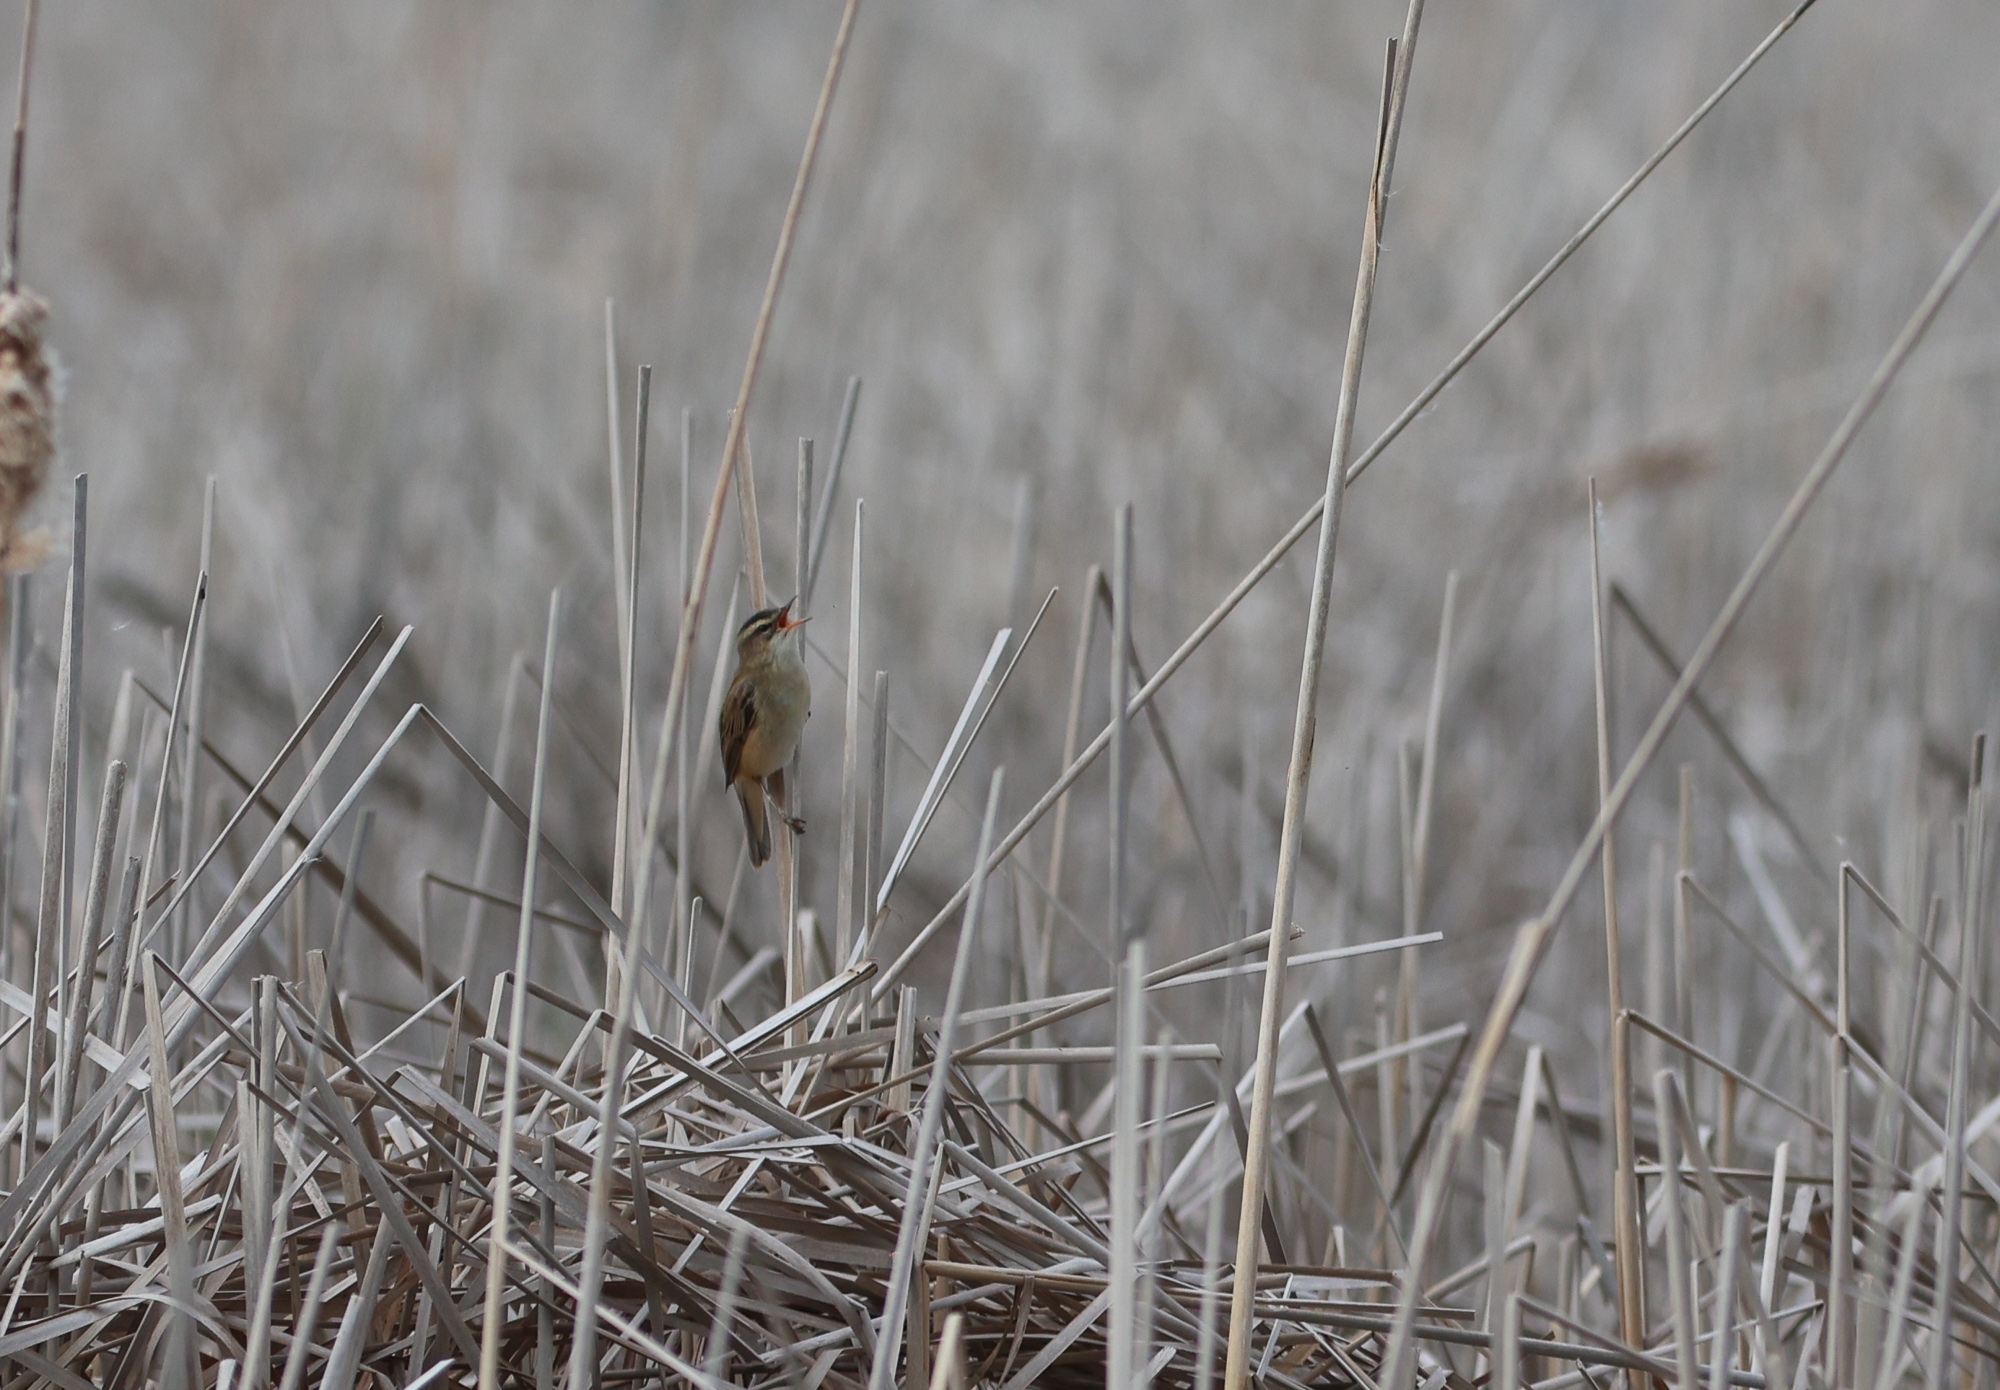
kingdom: Animalia
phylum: Chordata
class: Aves
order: Passeriformes
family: Acrocephalidae
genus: Acrocephalus
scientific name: Acrocephalus schoenobaenus
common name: Sedge warbler
